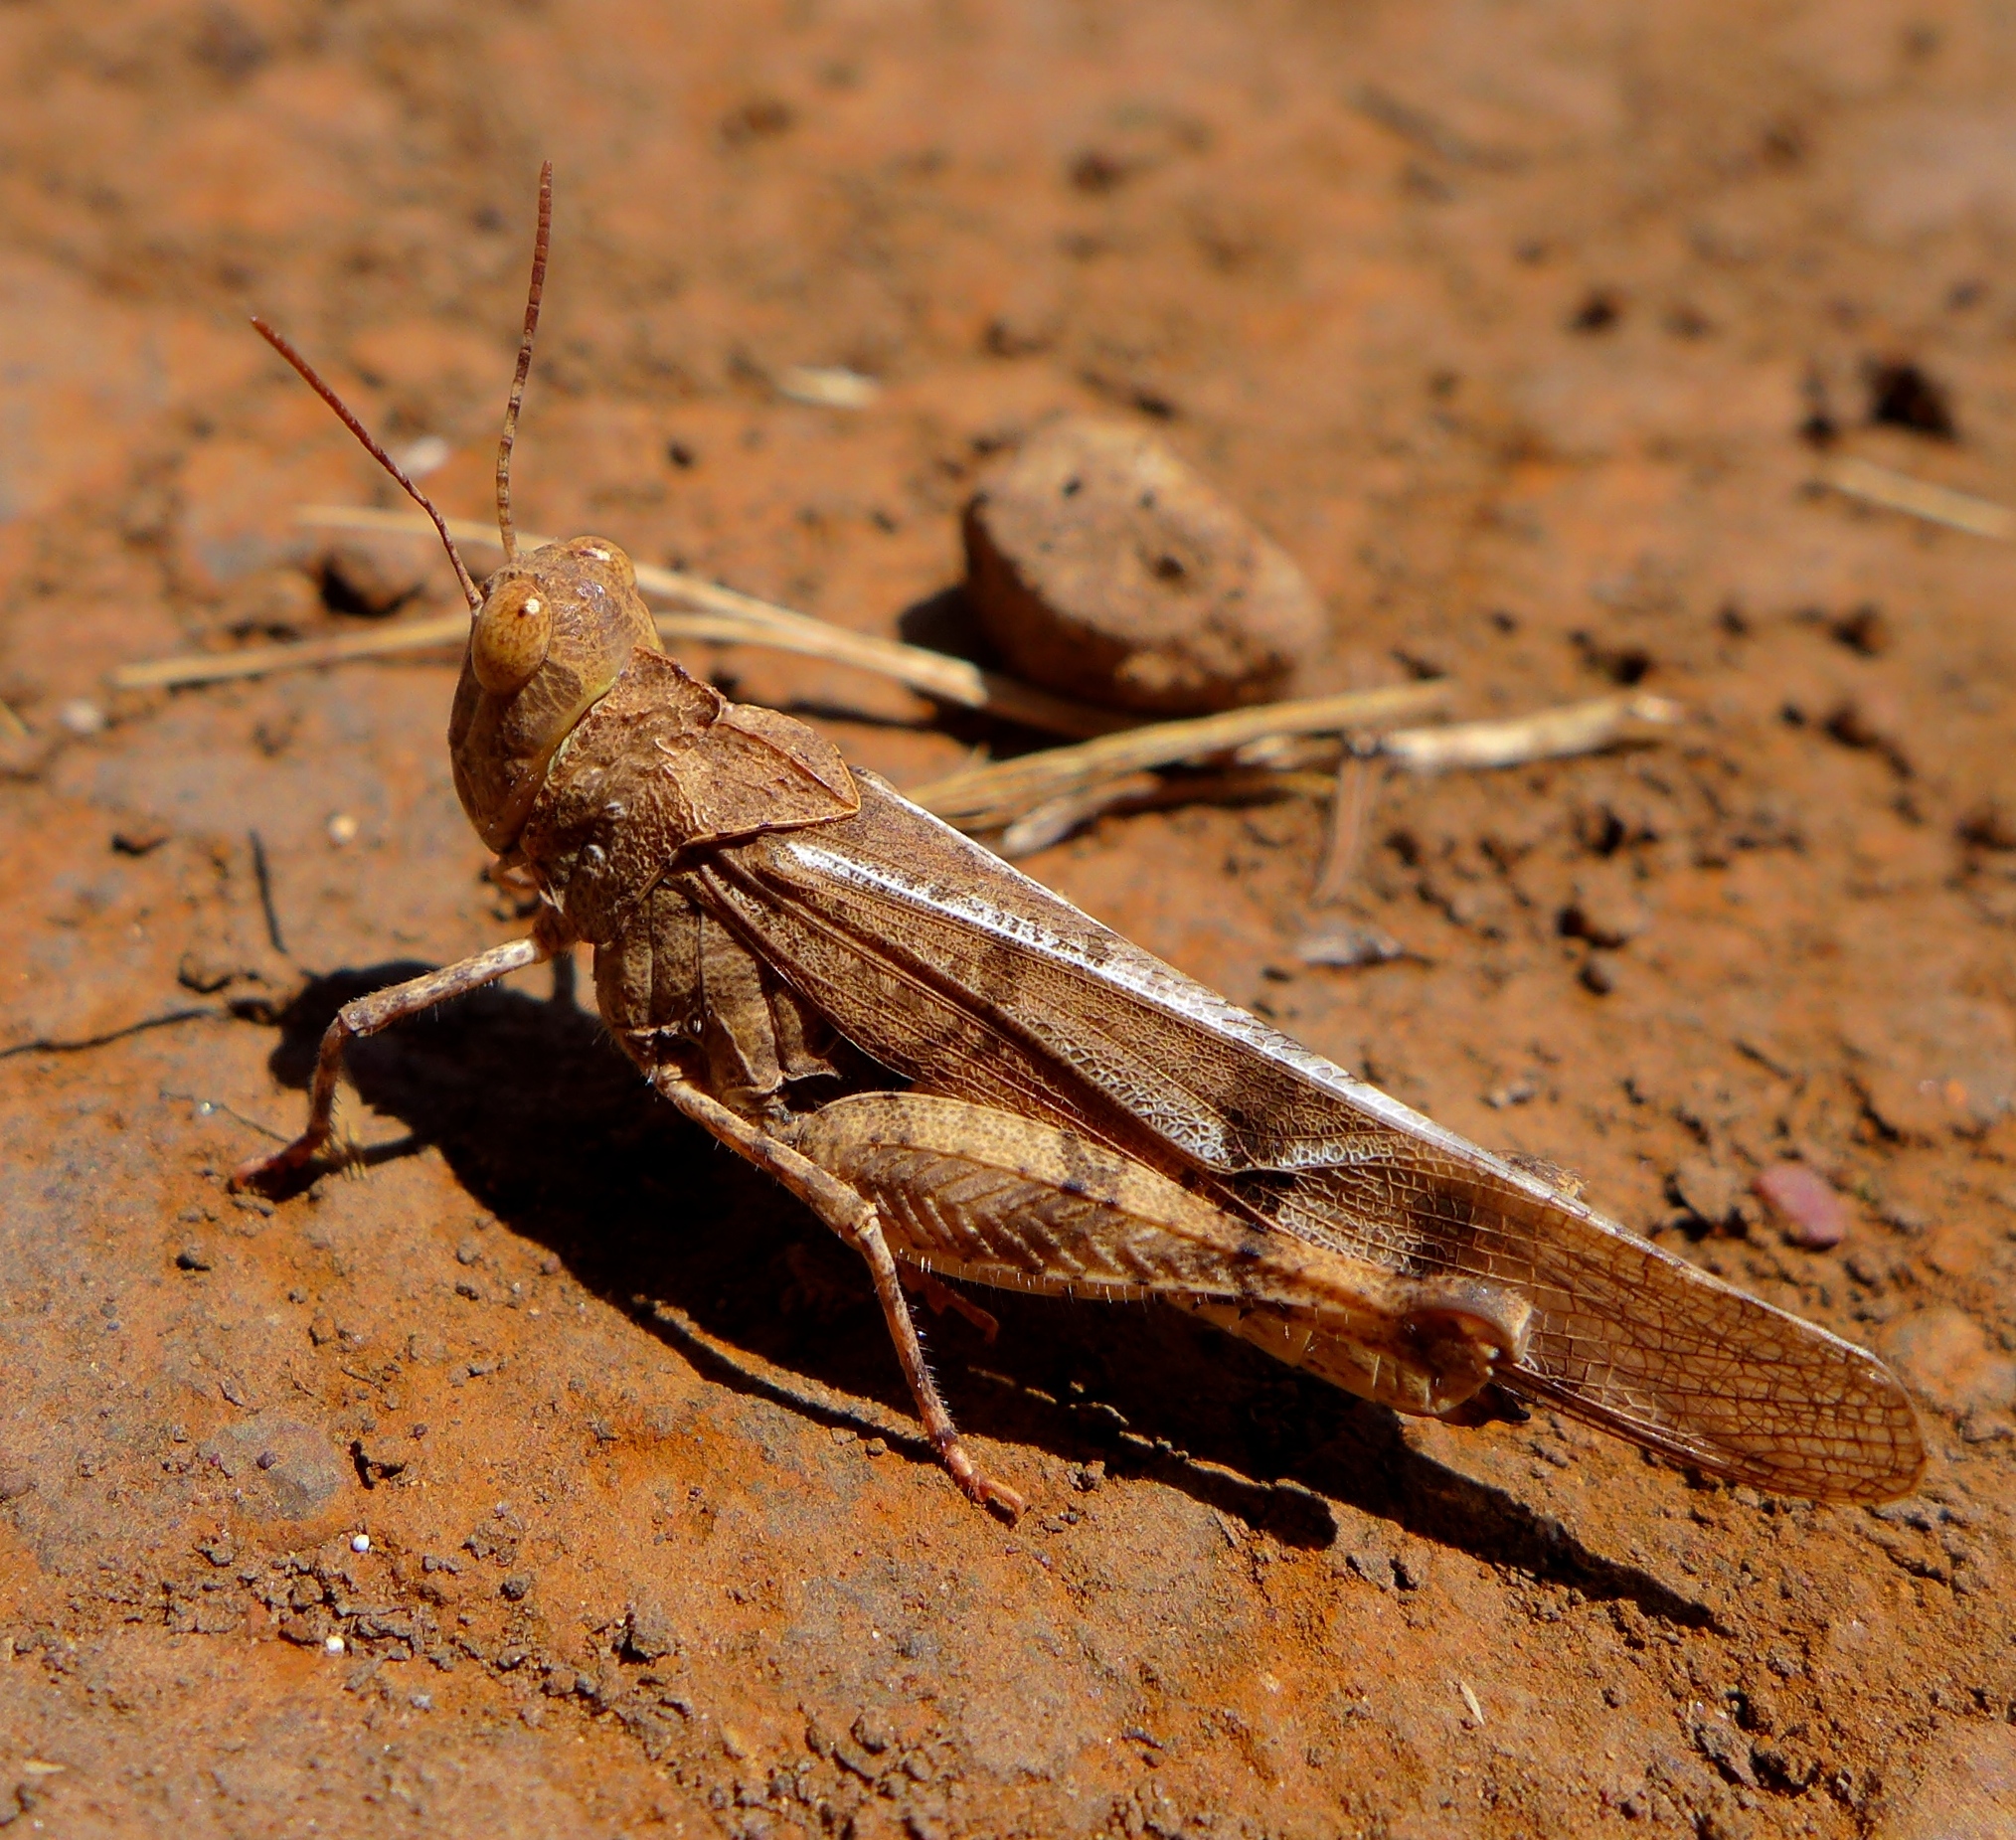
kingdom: Animalia
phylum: Arthropoda
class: Insecta
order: Orthoptera
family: Acrididae
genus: Dissosteira
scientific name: Dissosteira pictipennis
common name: California rose-winged grasshopper
